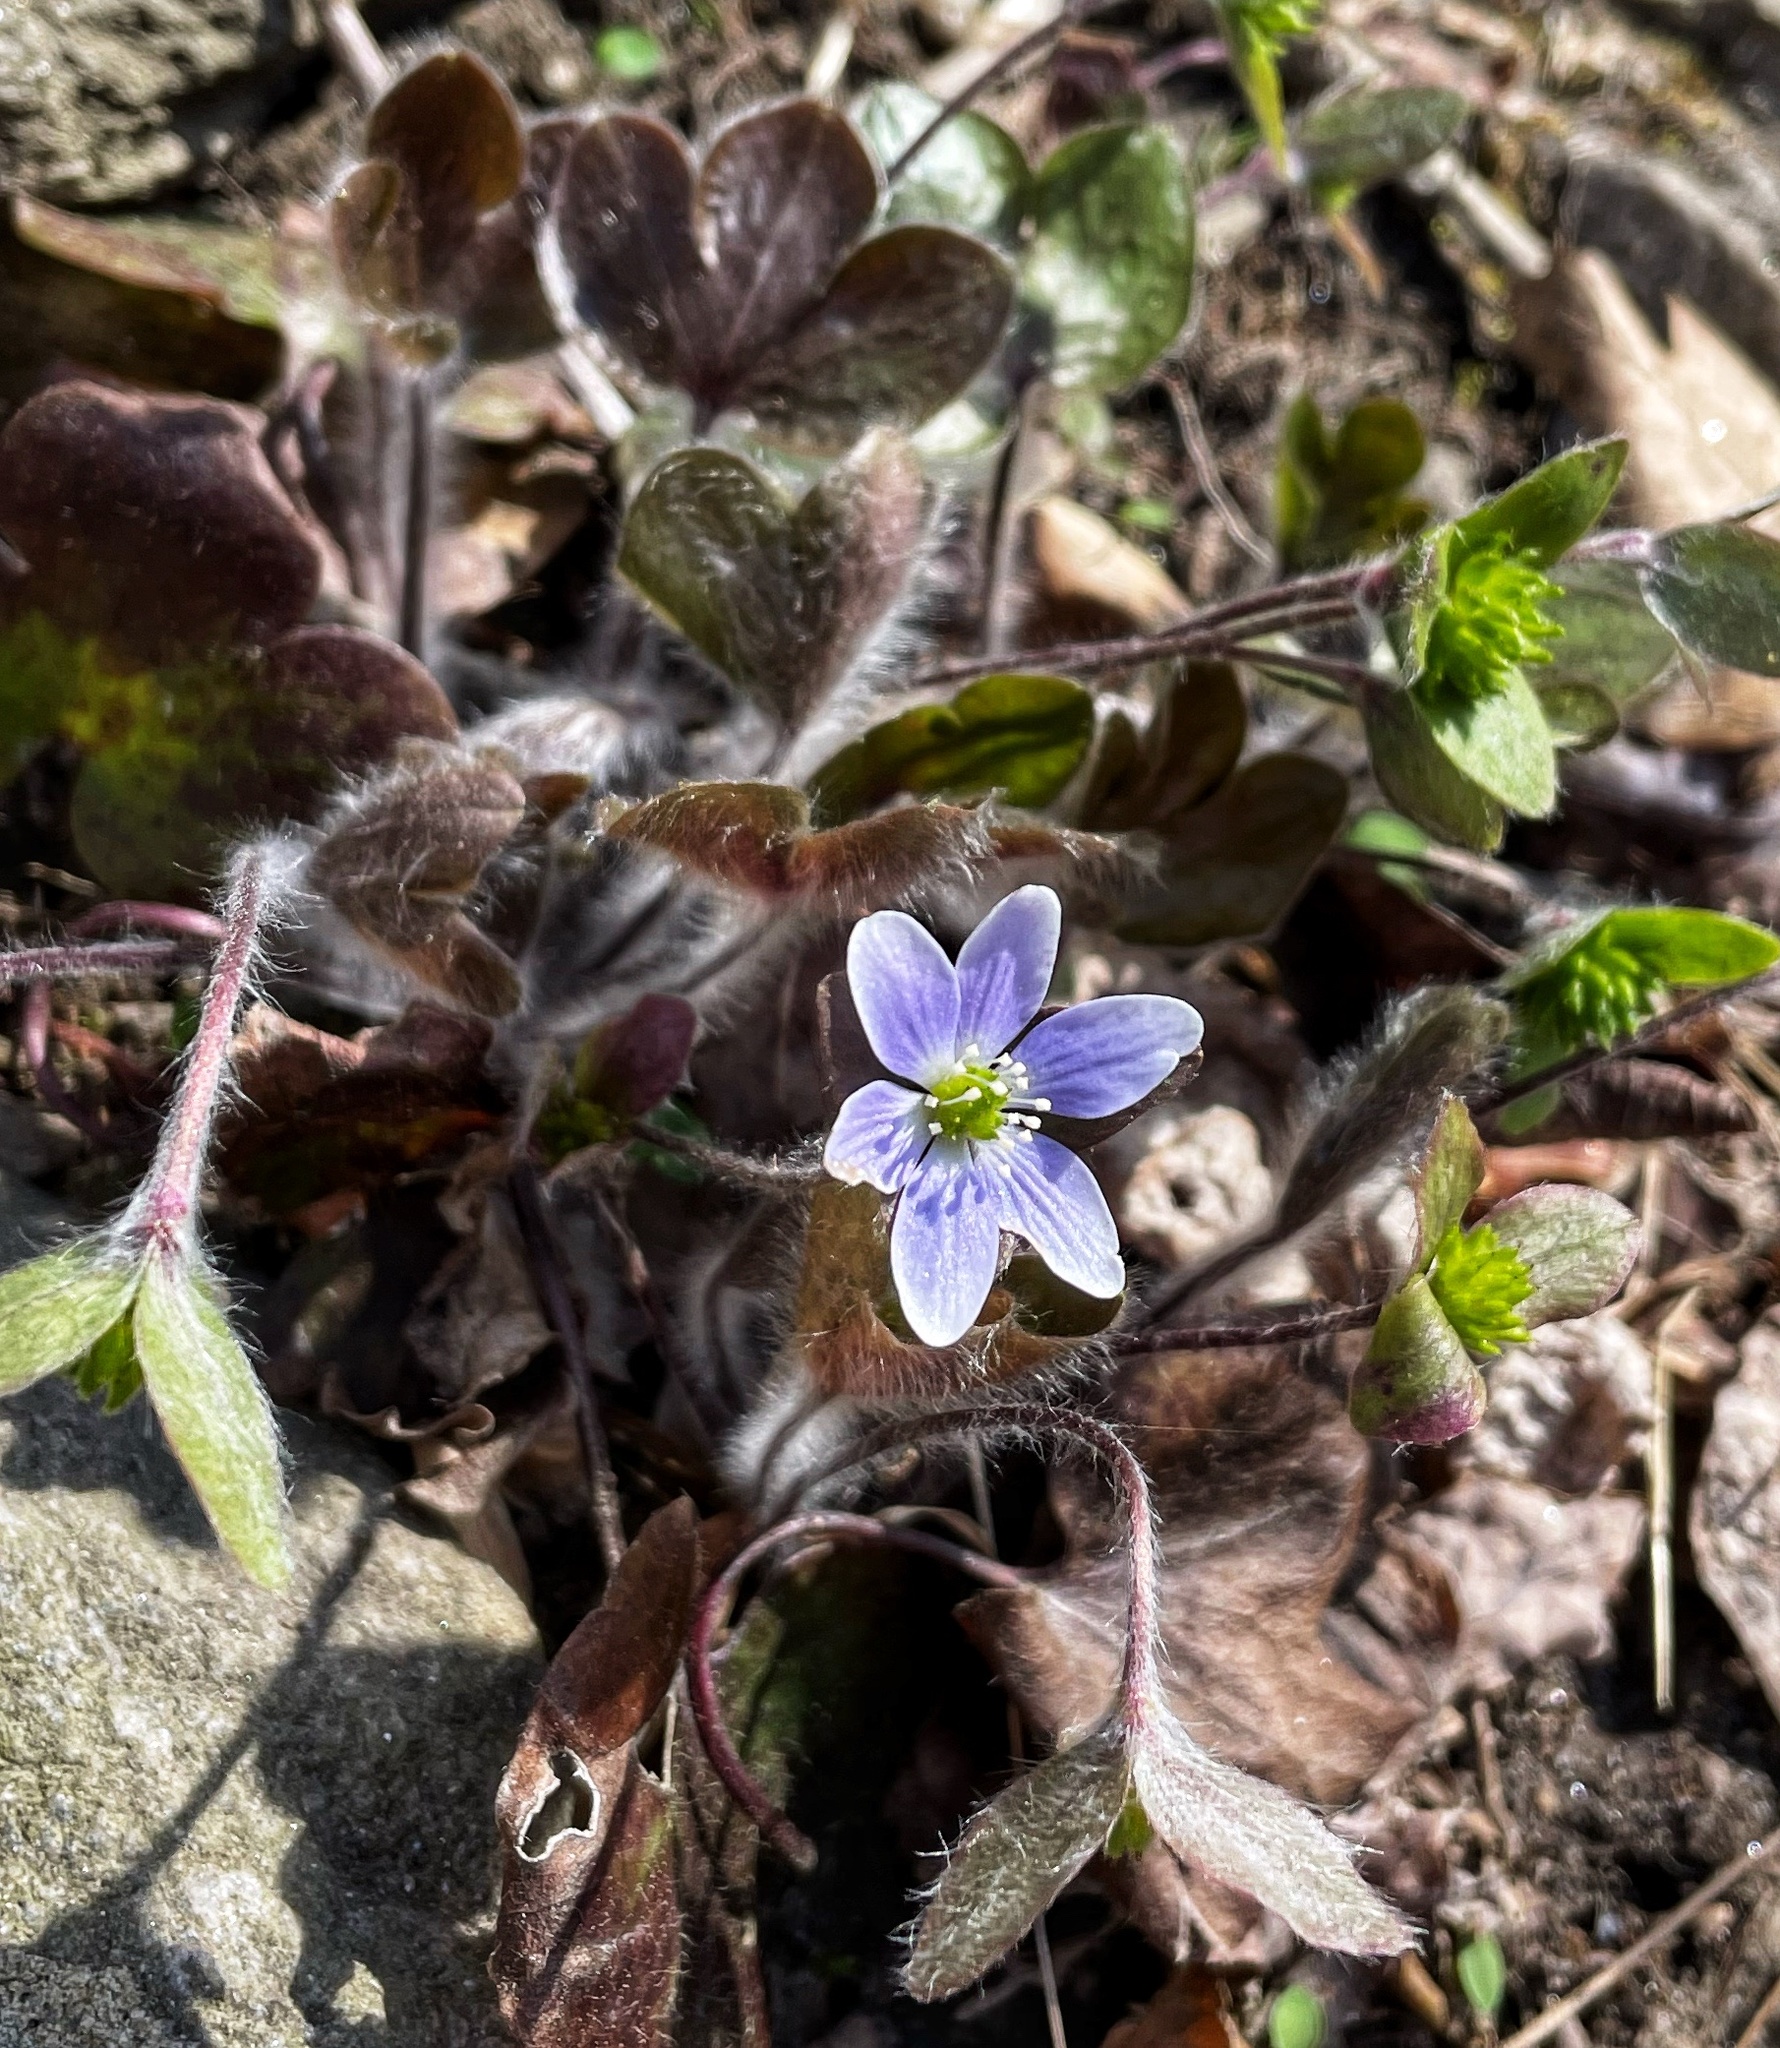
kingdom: Plantae
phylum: Tracheophyta
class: Magnoliopsida
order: Ranunculales
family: Ranunculaceae
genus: Hepatica
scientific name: Hepatica americana
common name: American hepatica
